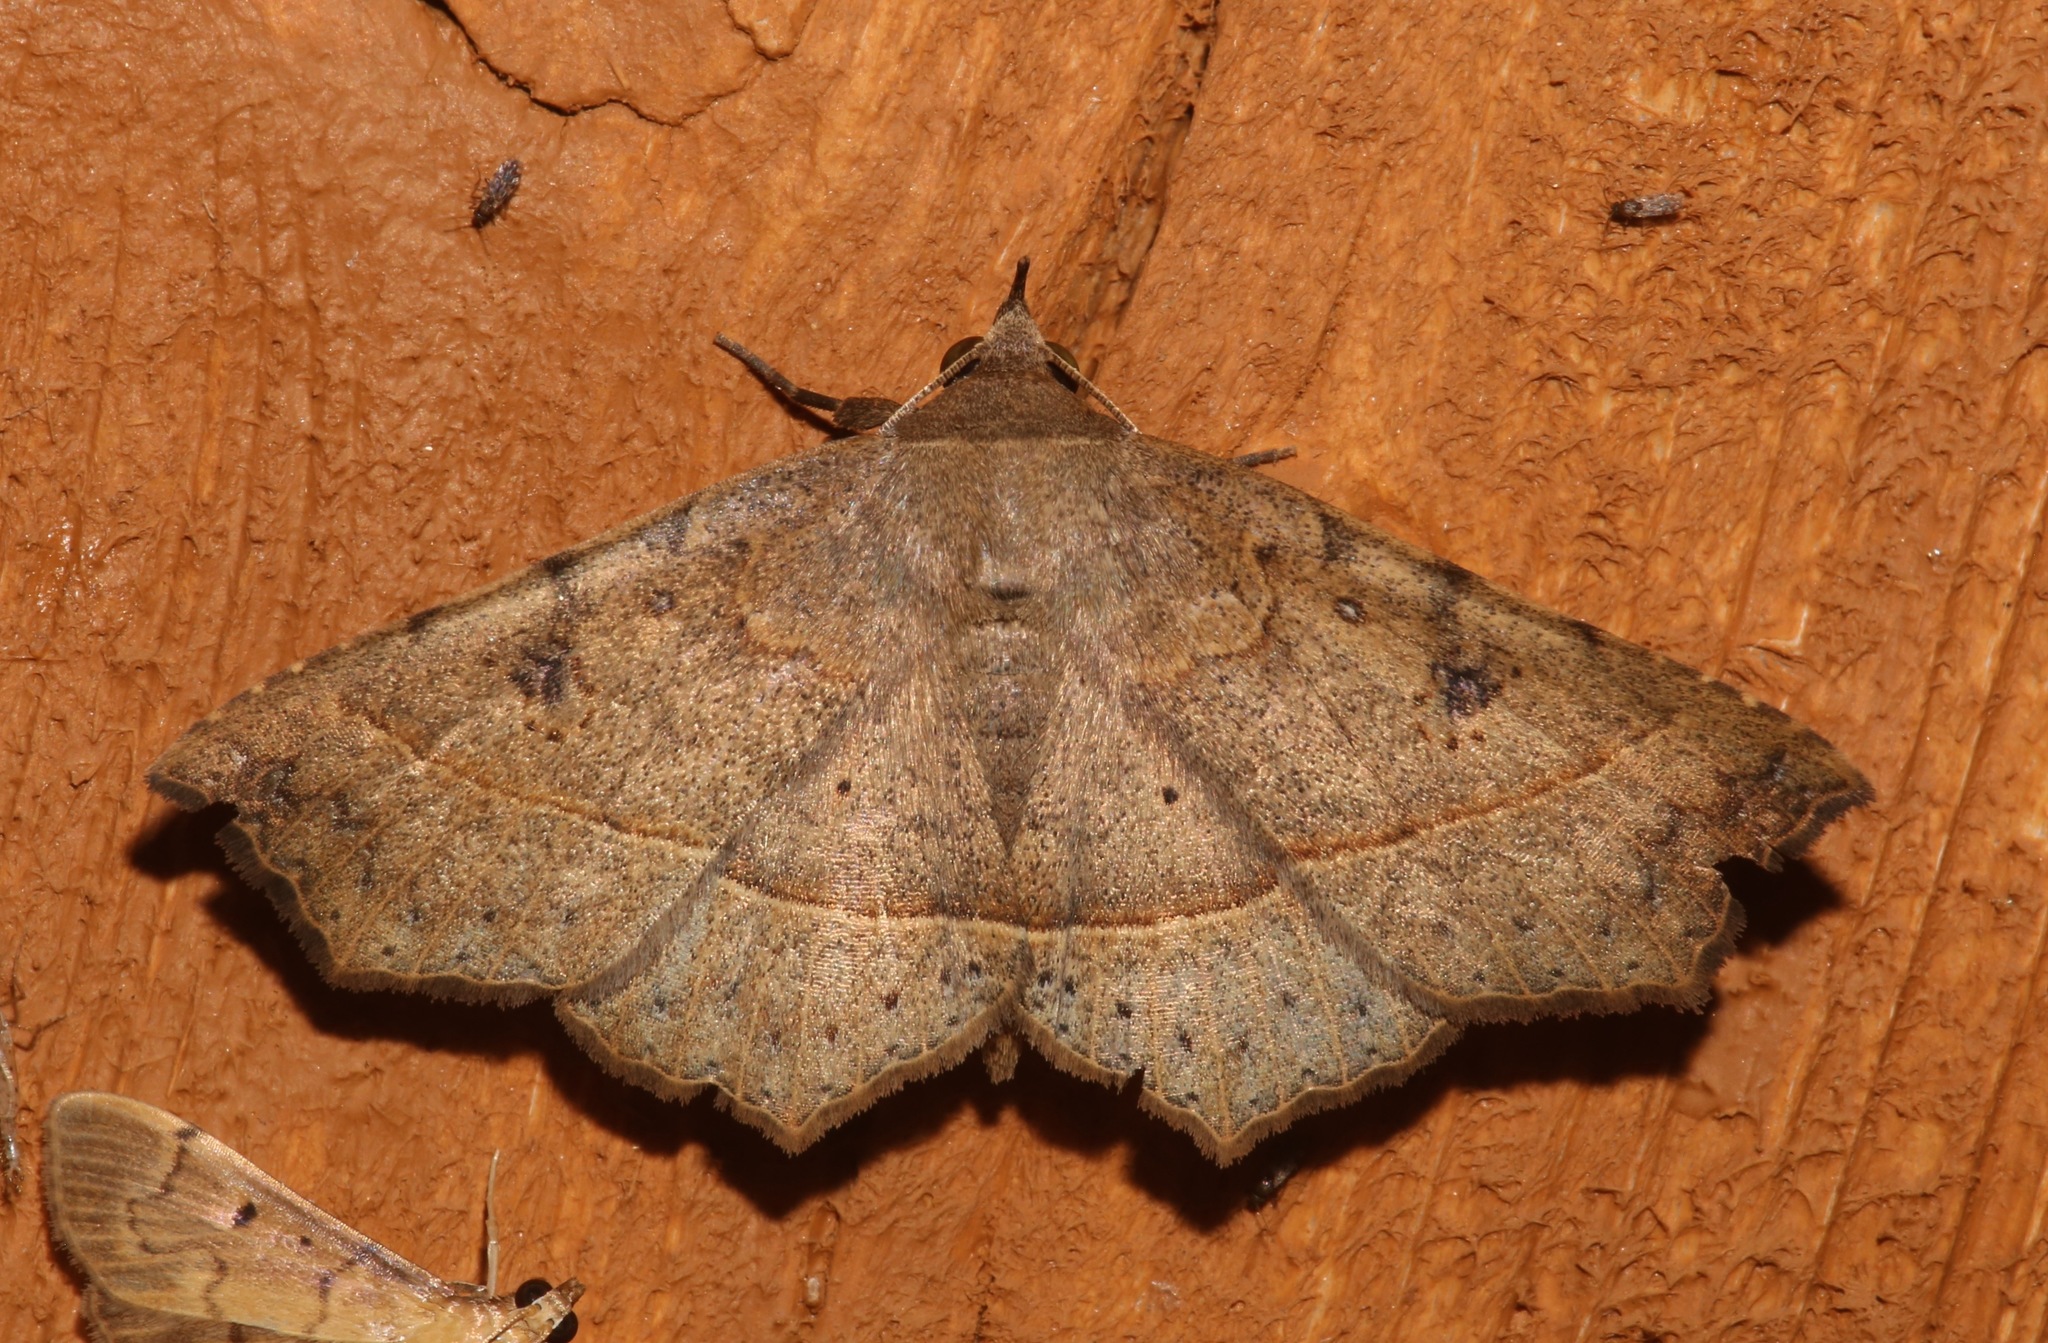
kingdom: Animalia
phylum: Arthropoda
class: Insecta
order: Lepidoptera
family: Erebidae
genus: Ephyrodes
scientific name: Ephyrodes cacata
